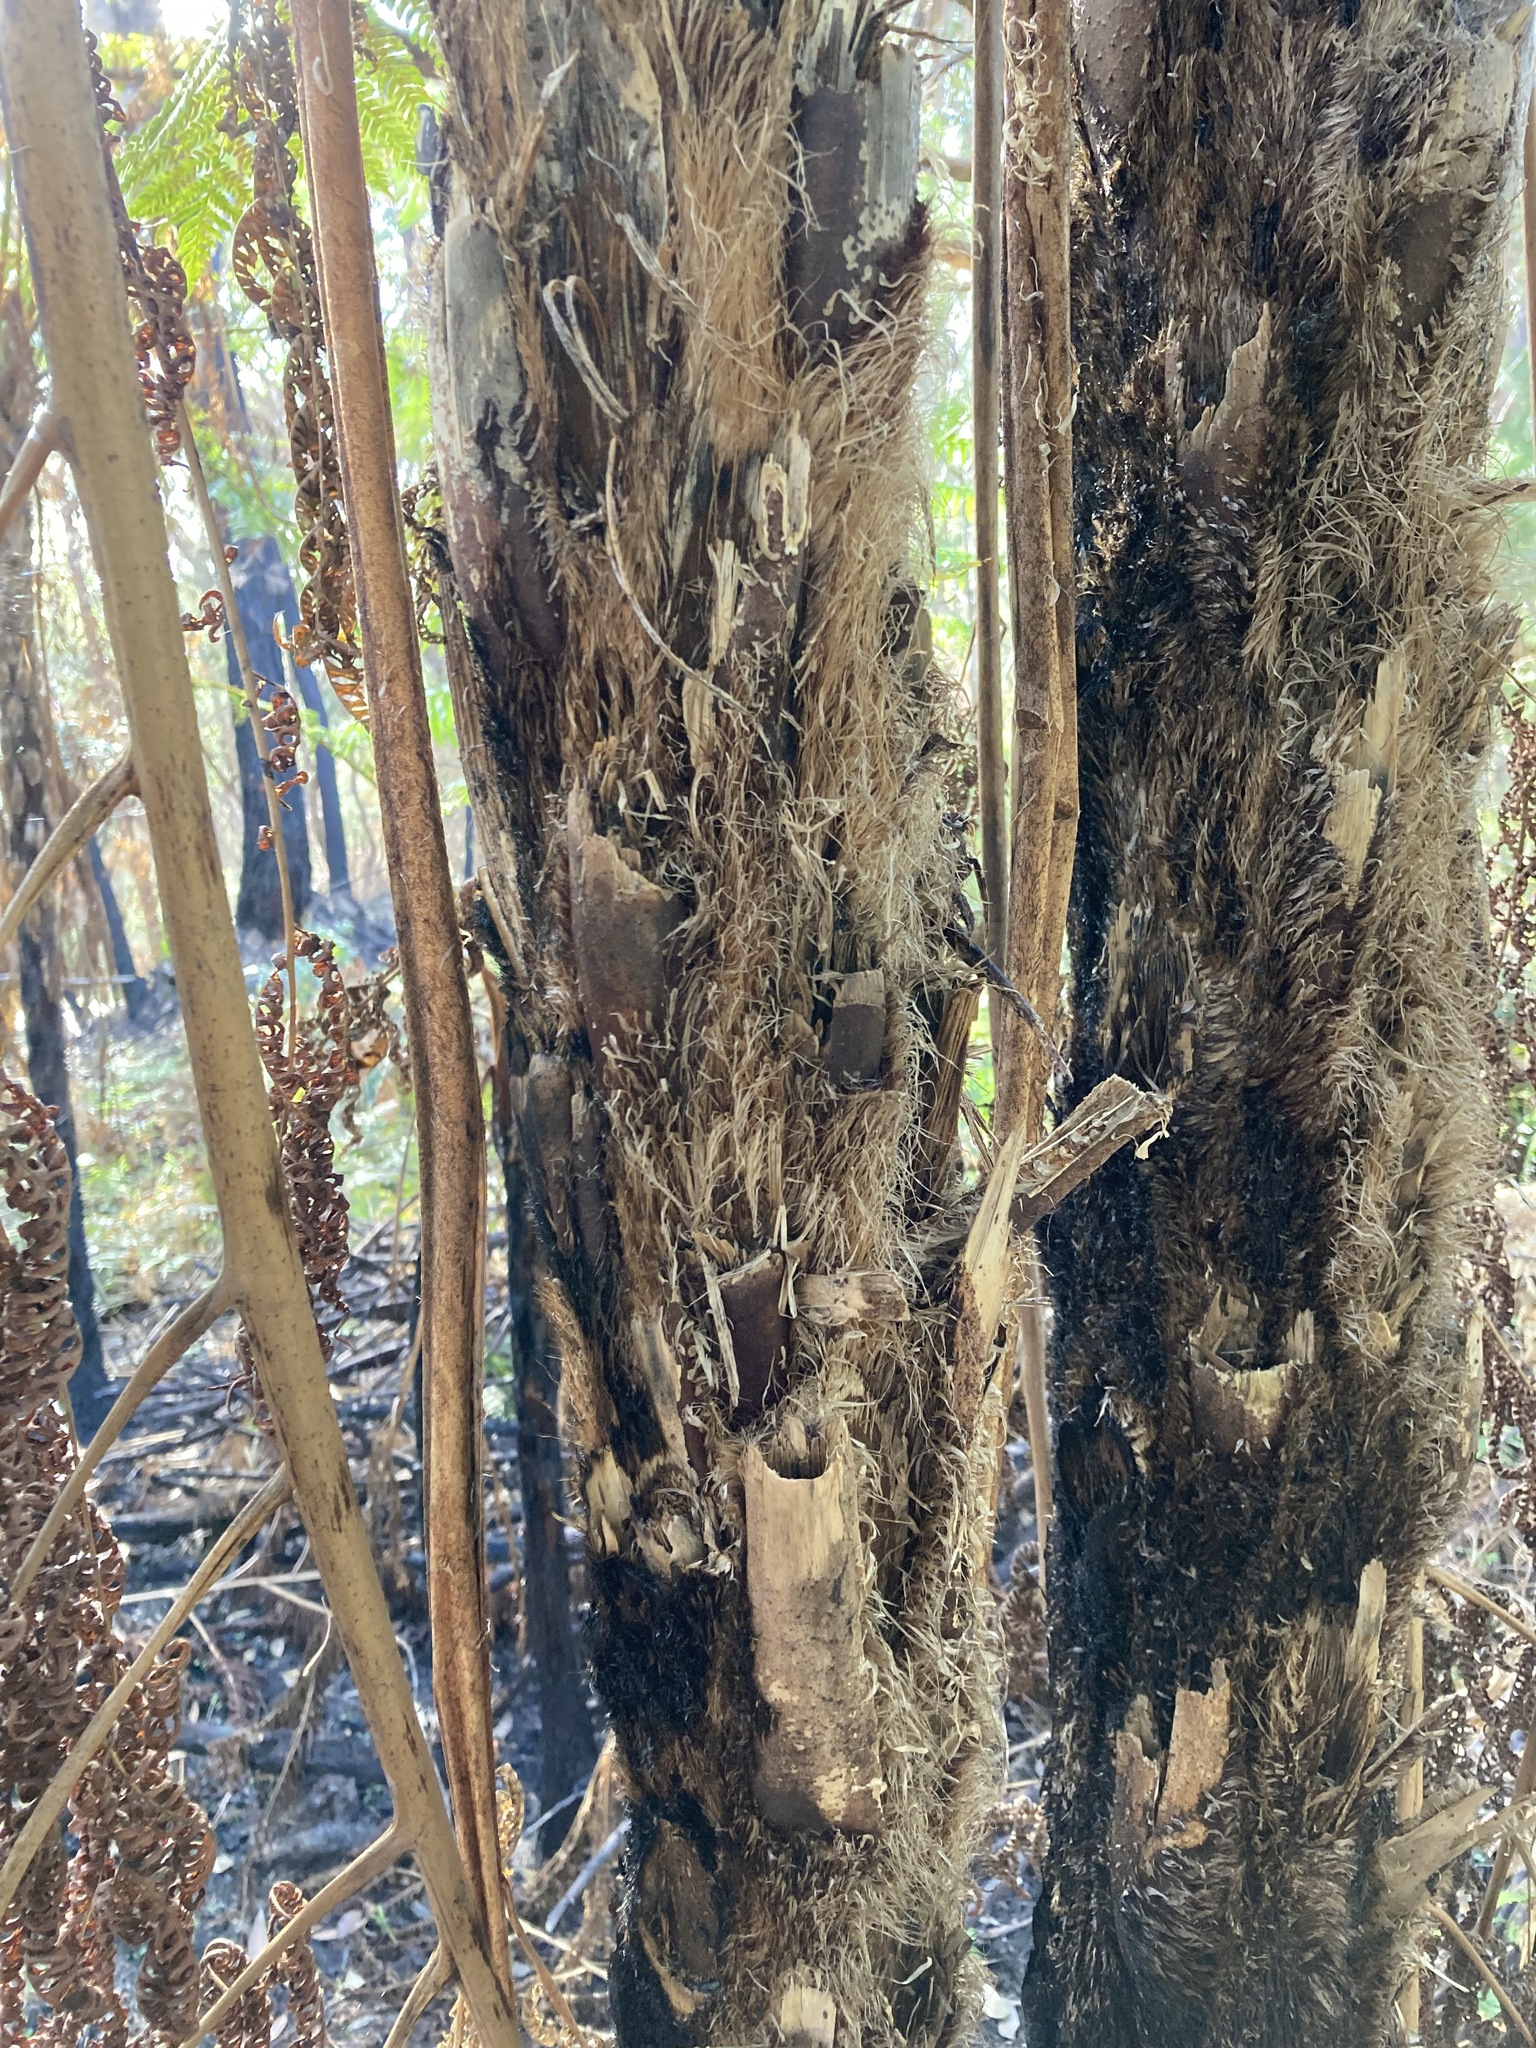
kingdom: Plantae
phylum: Tracheophyta
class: Polypodiopsida
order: Cyatheales
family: Cyatheaceae
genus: Sphaeropteris
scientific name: Sphaeropteris cooperi
